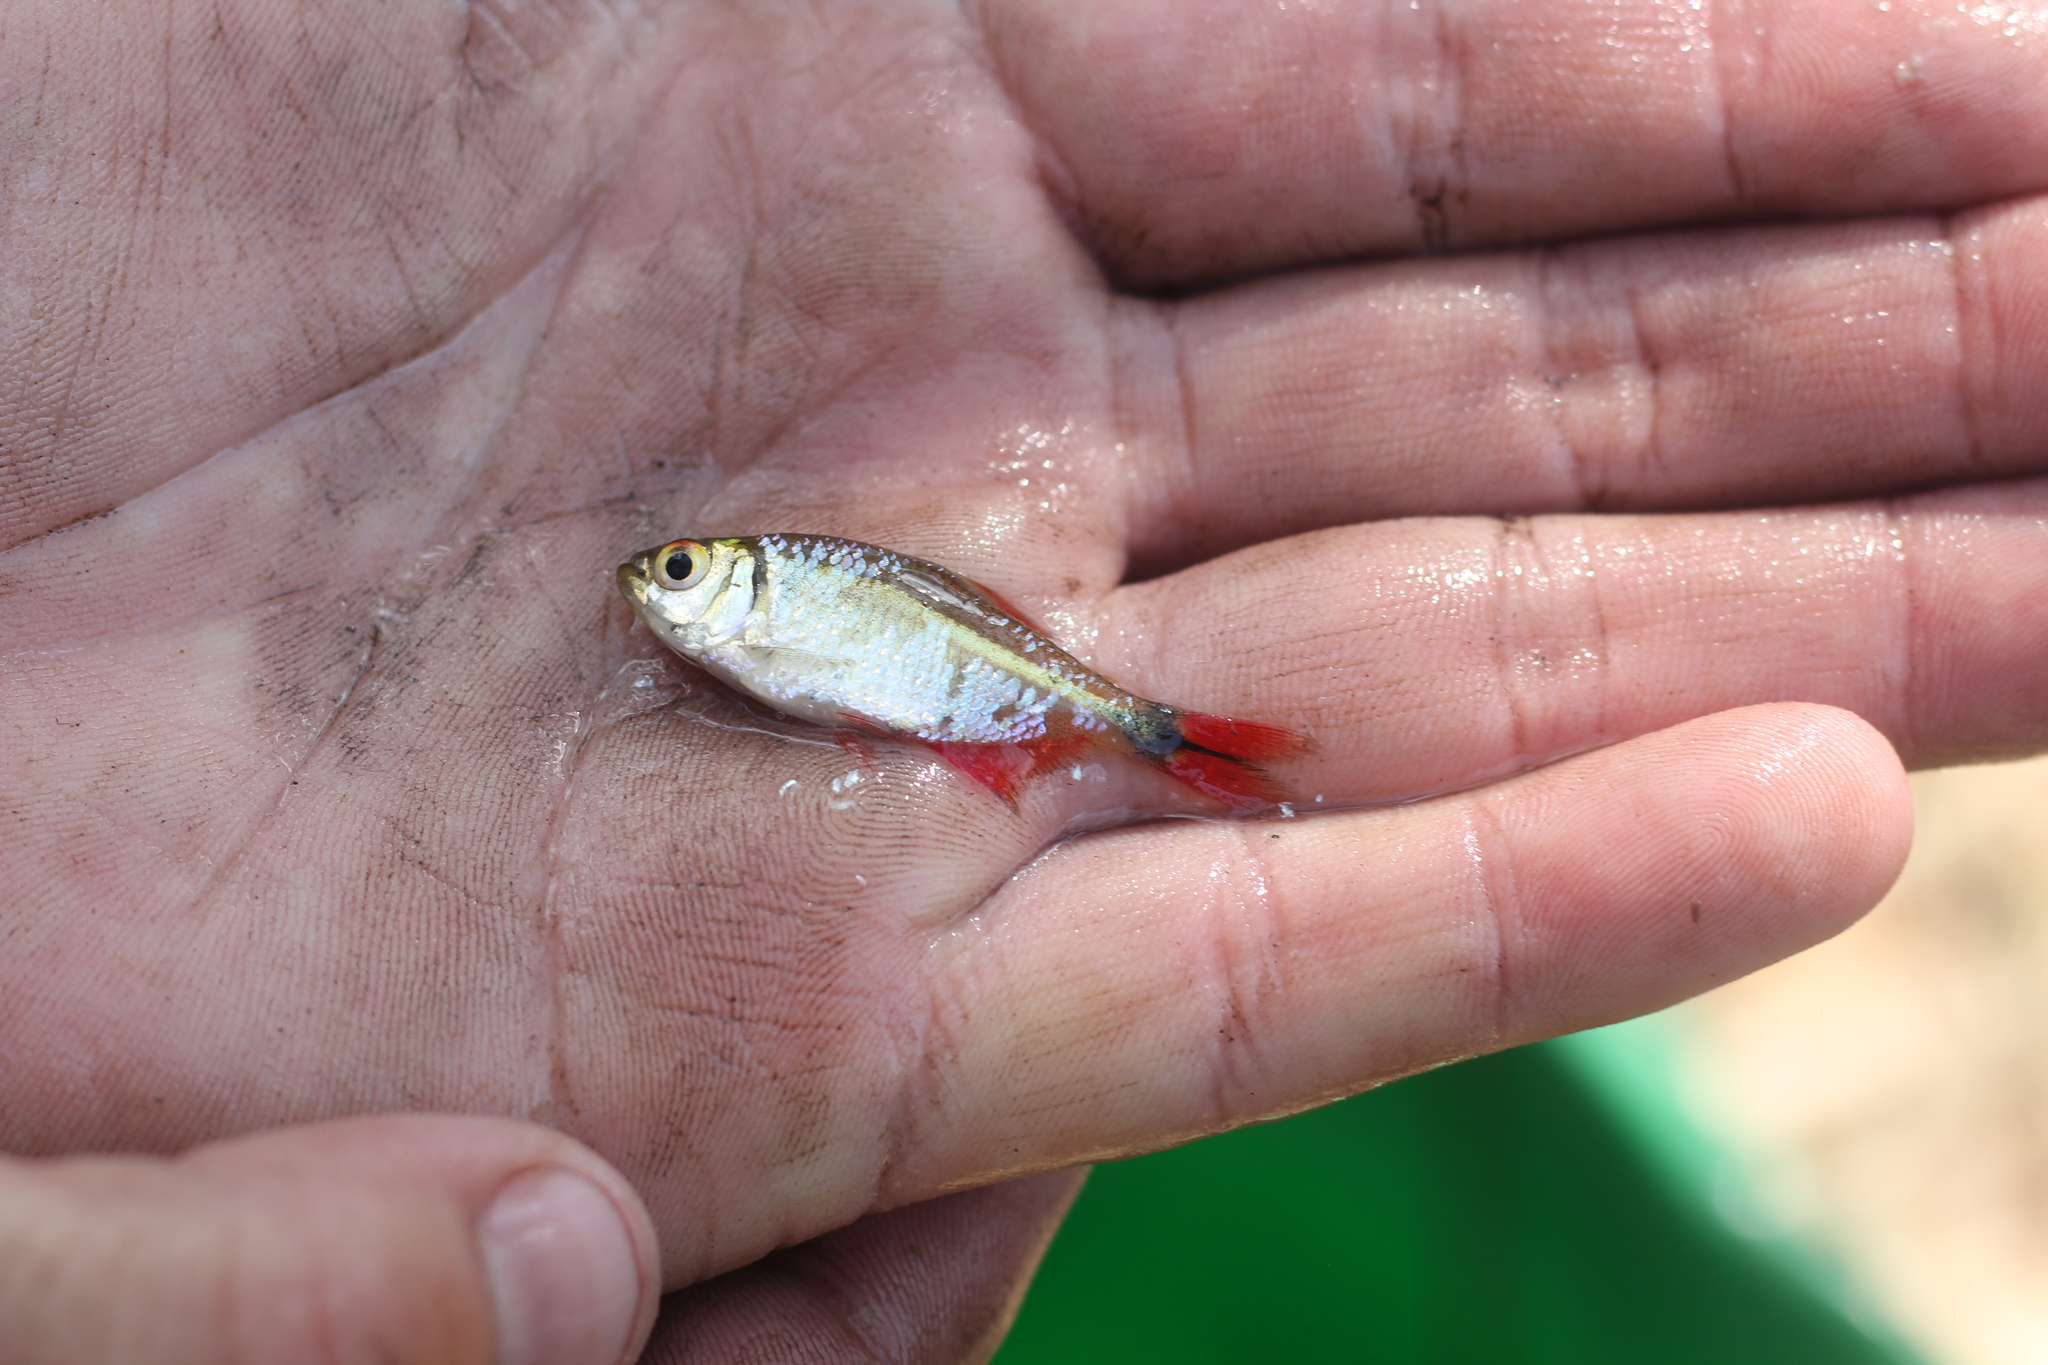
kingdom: Animalia
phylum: Chordata
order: Characiformes
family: Characidae
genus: Hyphessobrycon
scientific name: Hyphessobrycon anisitsi
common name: Buenos aires tetra
